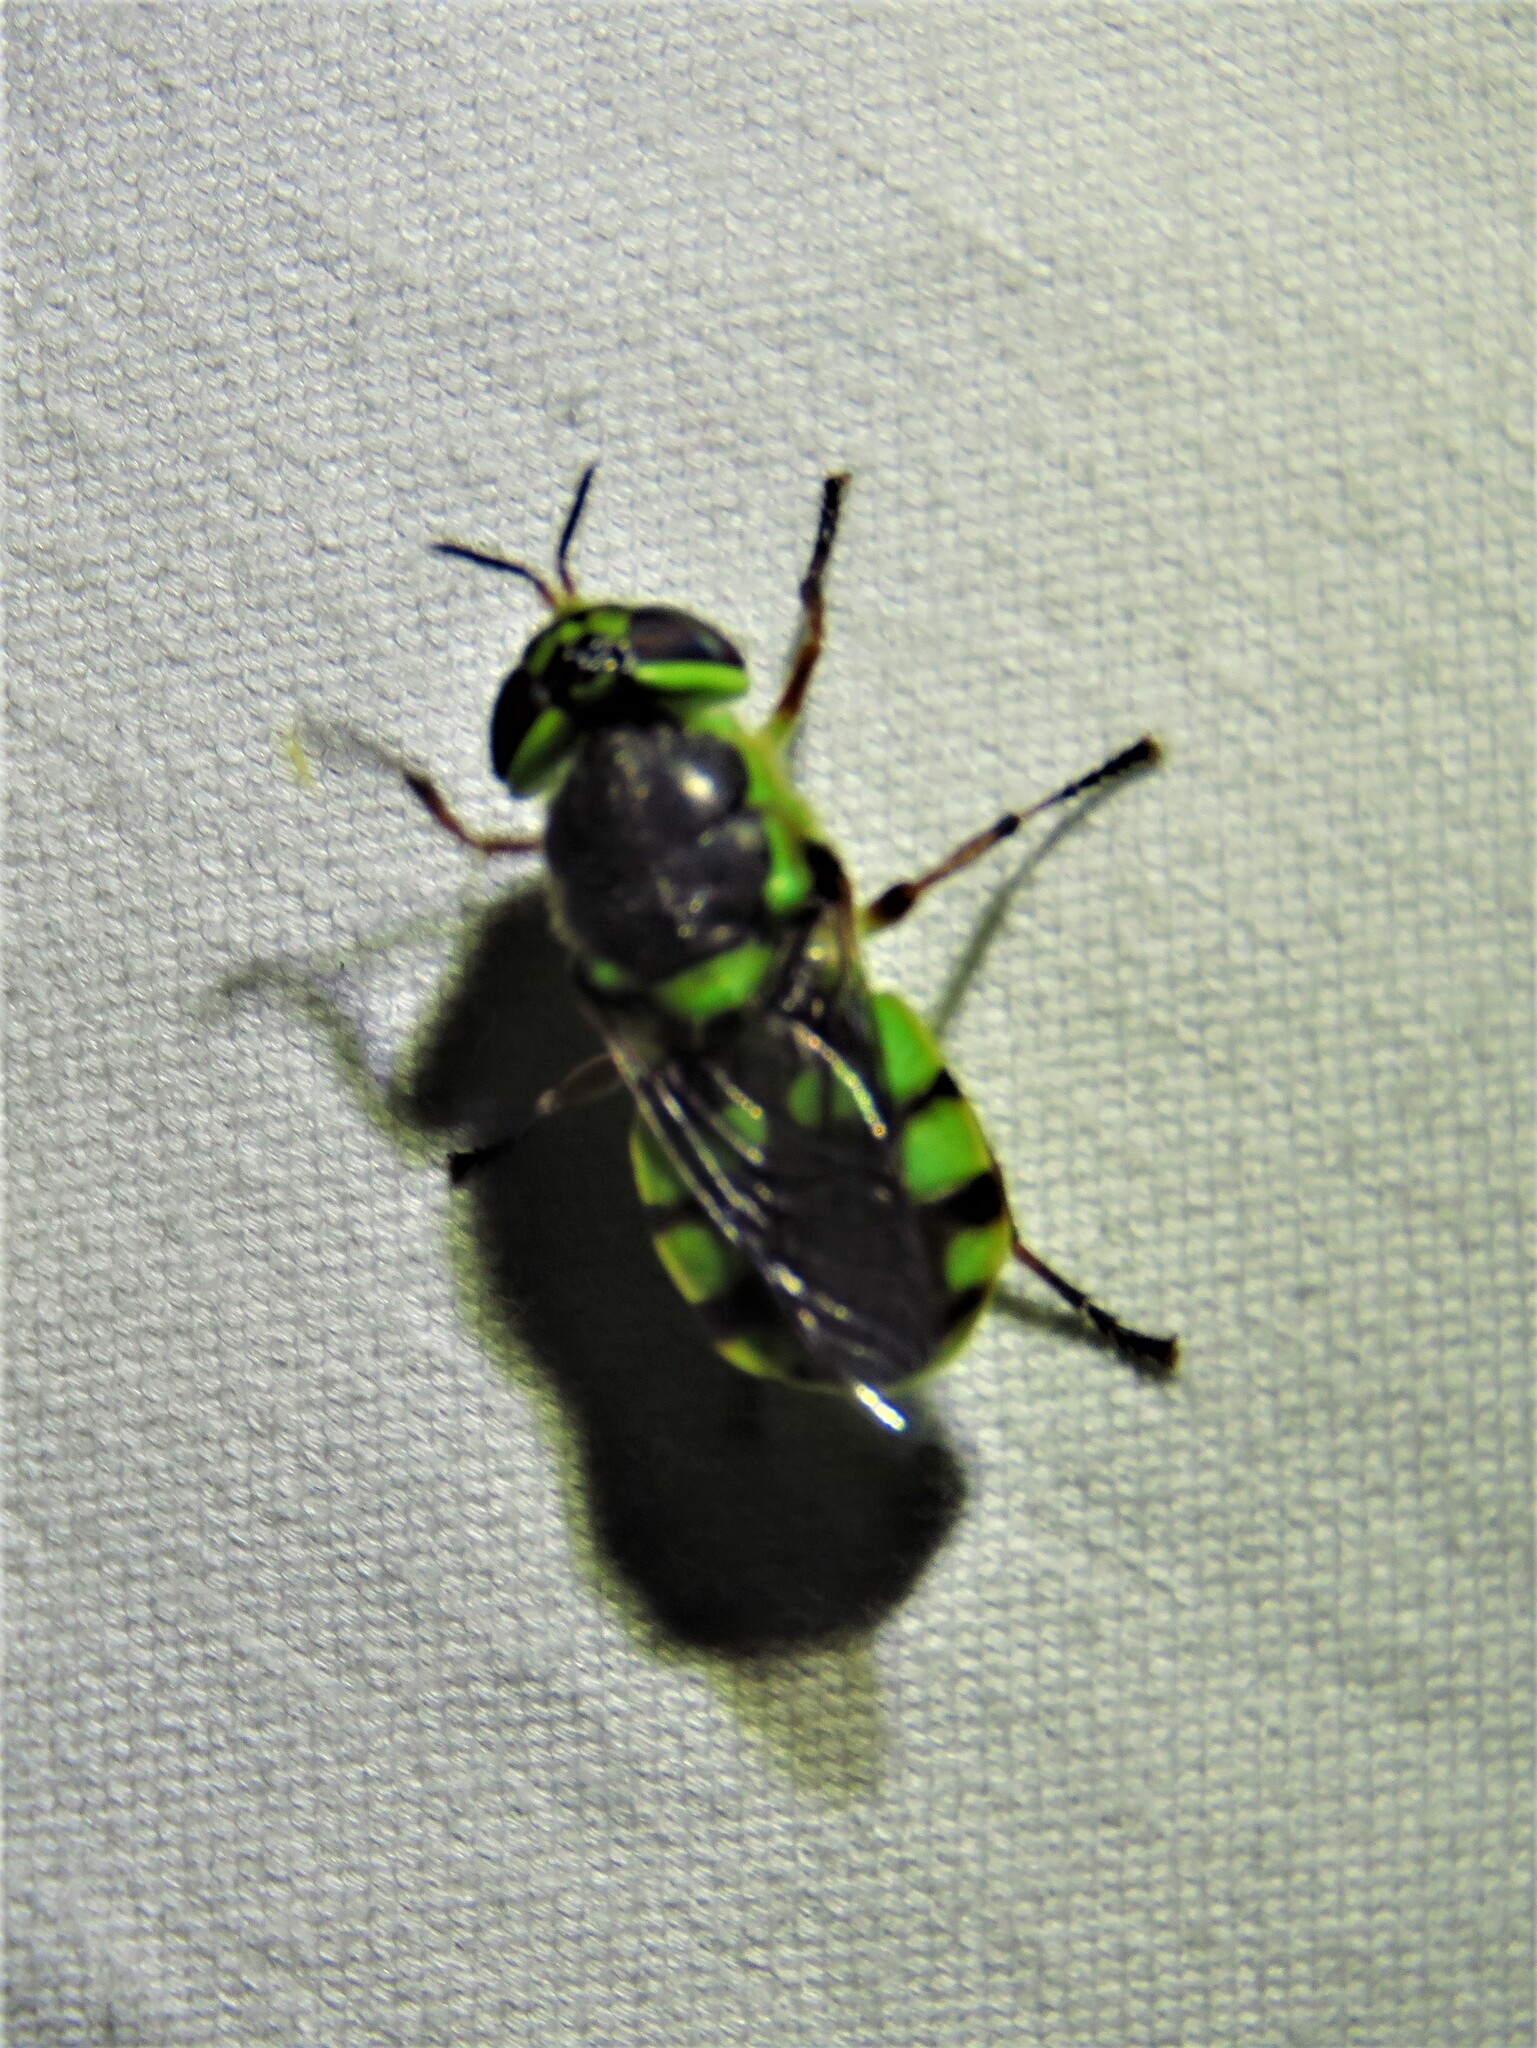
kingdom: Animalia
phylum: Arthropoda
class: Insecta
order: Diptera
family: Stratiomyidae
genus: Hedriodiscus
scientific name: Hedriodiscus truquii
